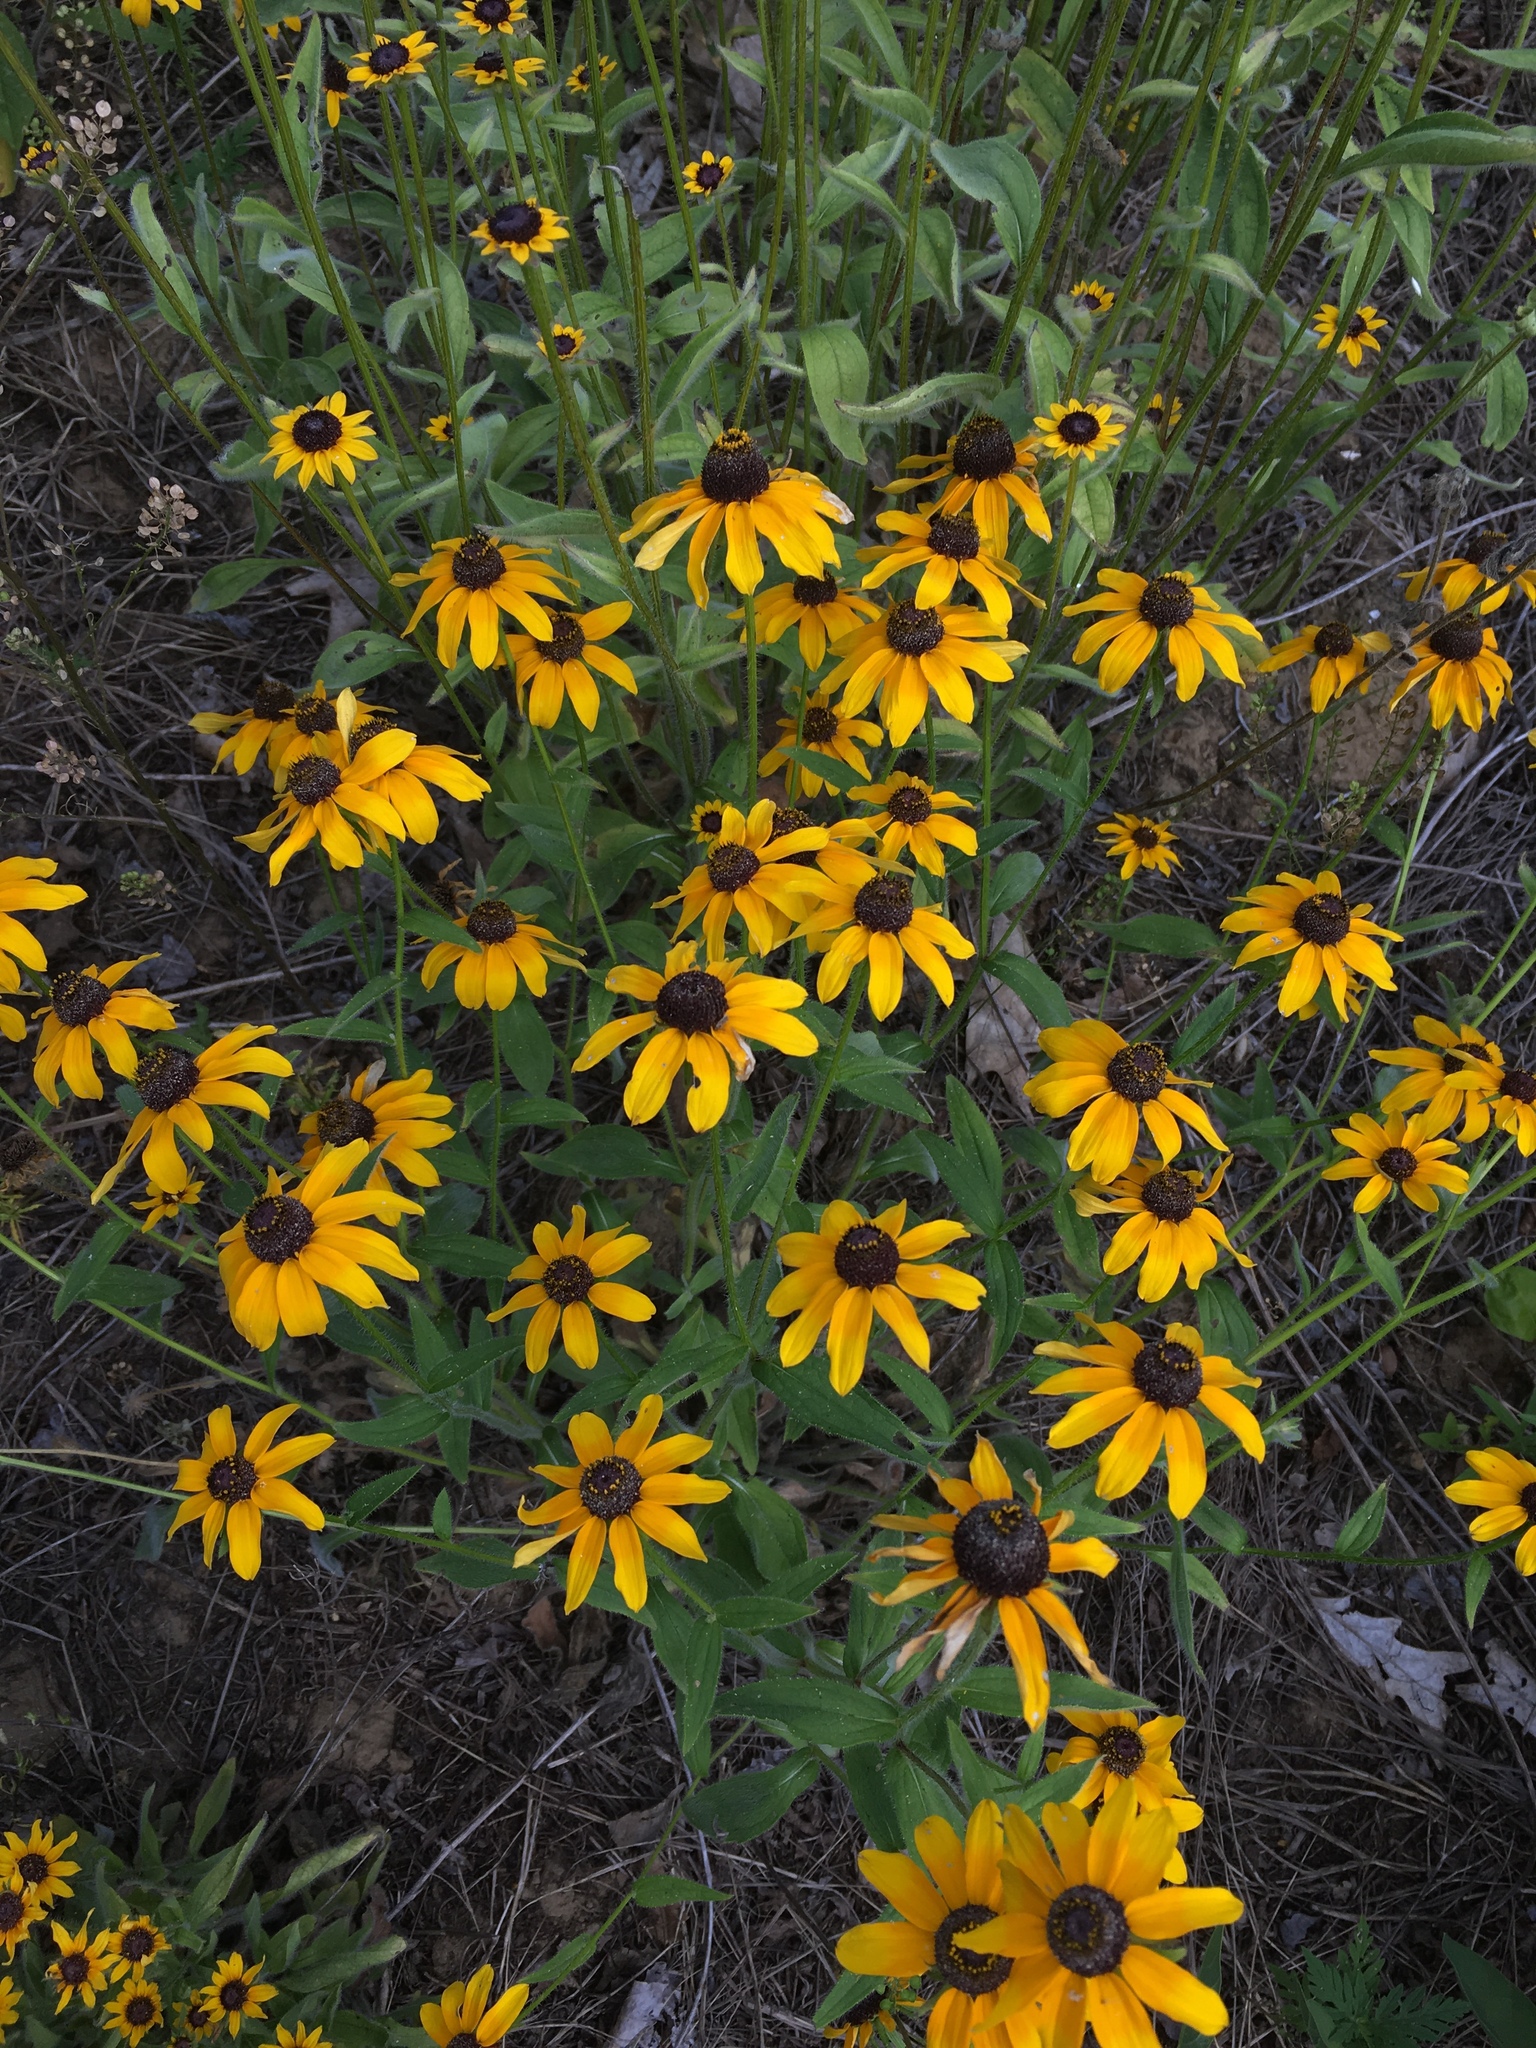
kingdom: Plantae
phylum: Tracheophyta
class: Magnoliopsida
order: Asterales
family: Asteraceae
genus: Rudbeckia
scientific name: Rudbeckia hirta
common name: Black-eyed-susan
